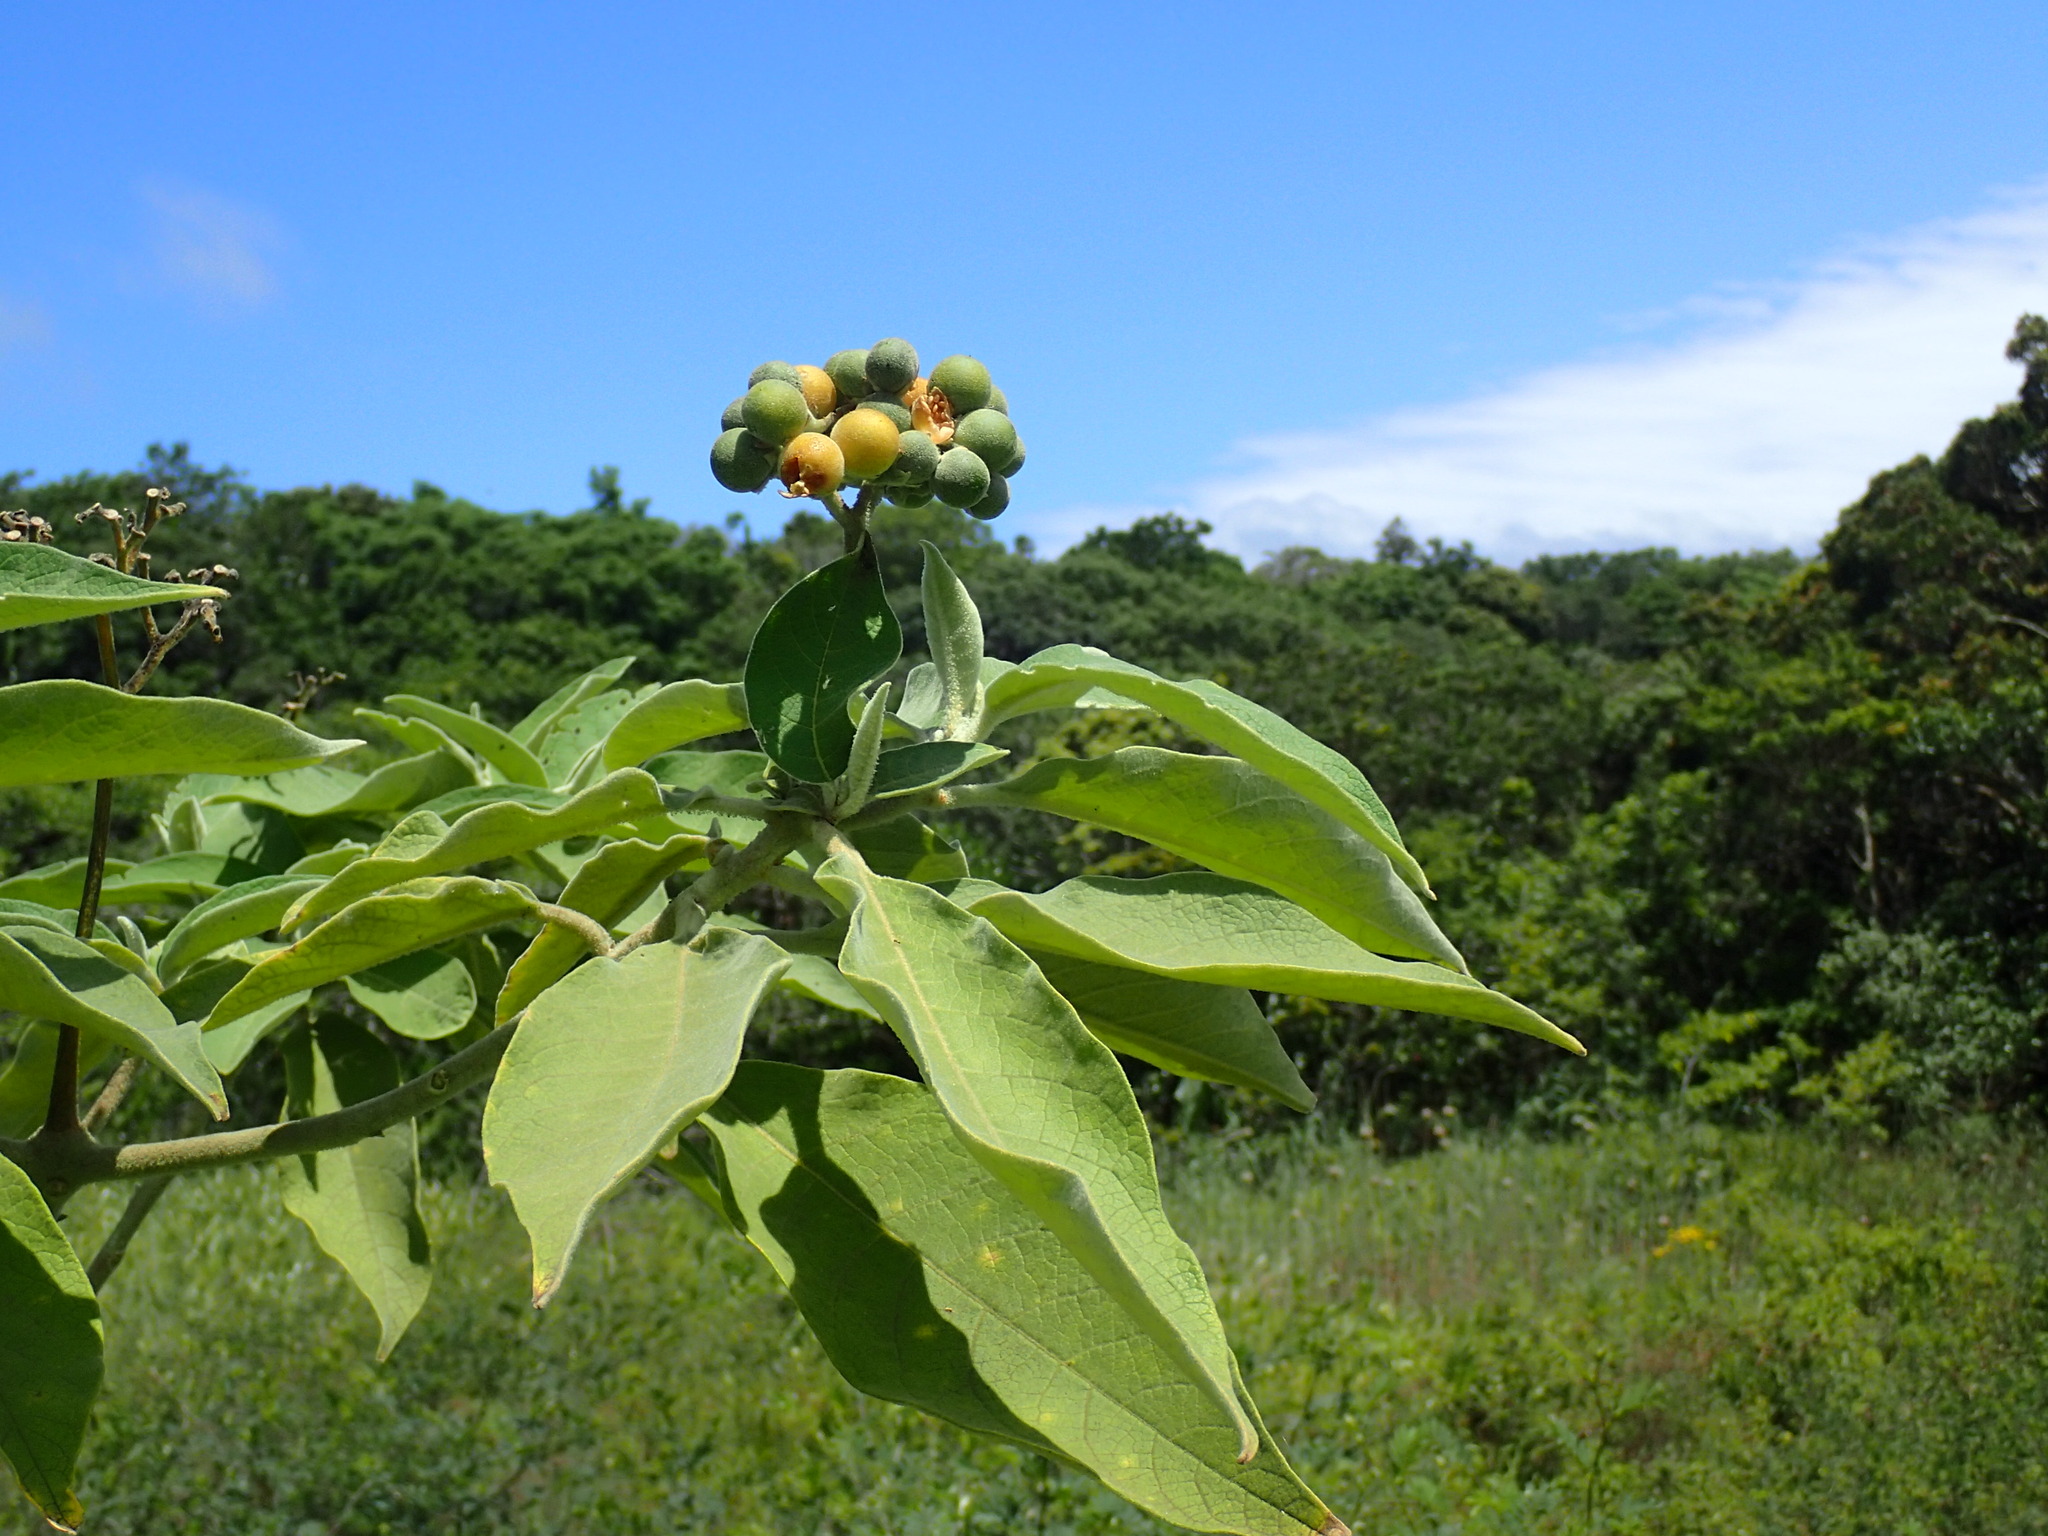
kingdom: Plantae
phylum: Tracheophyta
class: Magnoliopsida
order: Solanales
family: Solanaceae
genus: Solanum
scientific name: Solanum mauritianum
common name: Earleaf nightshade
